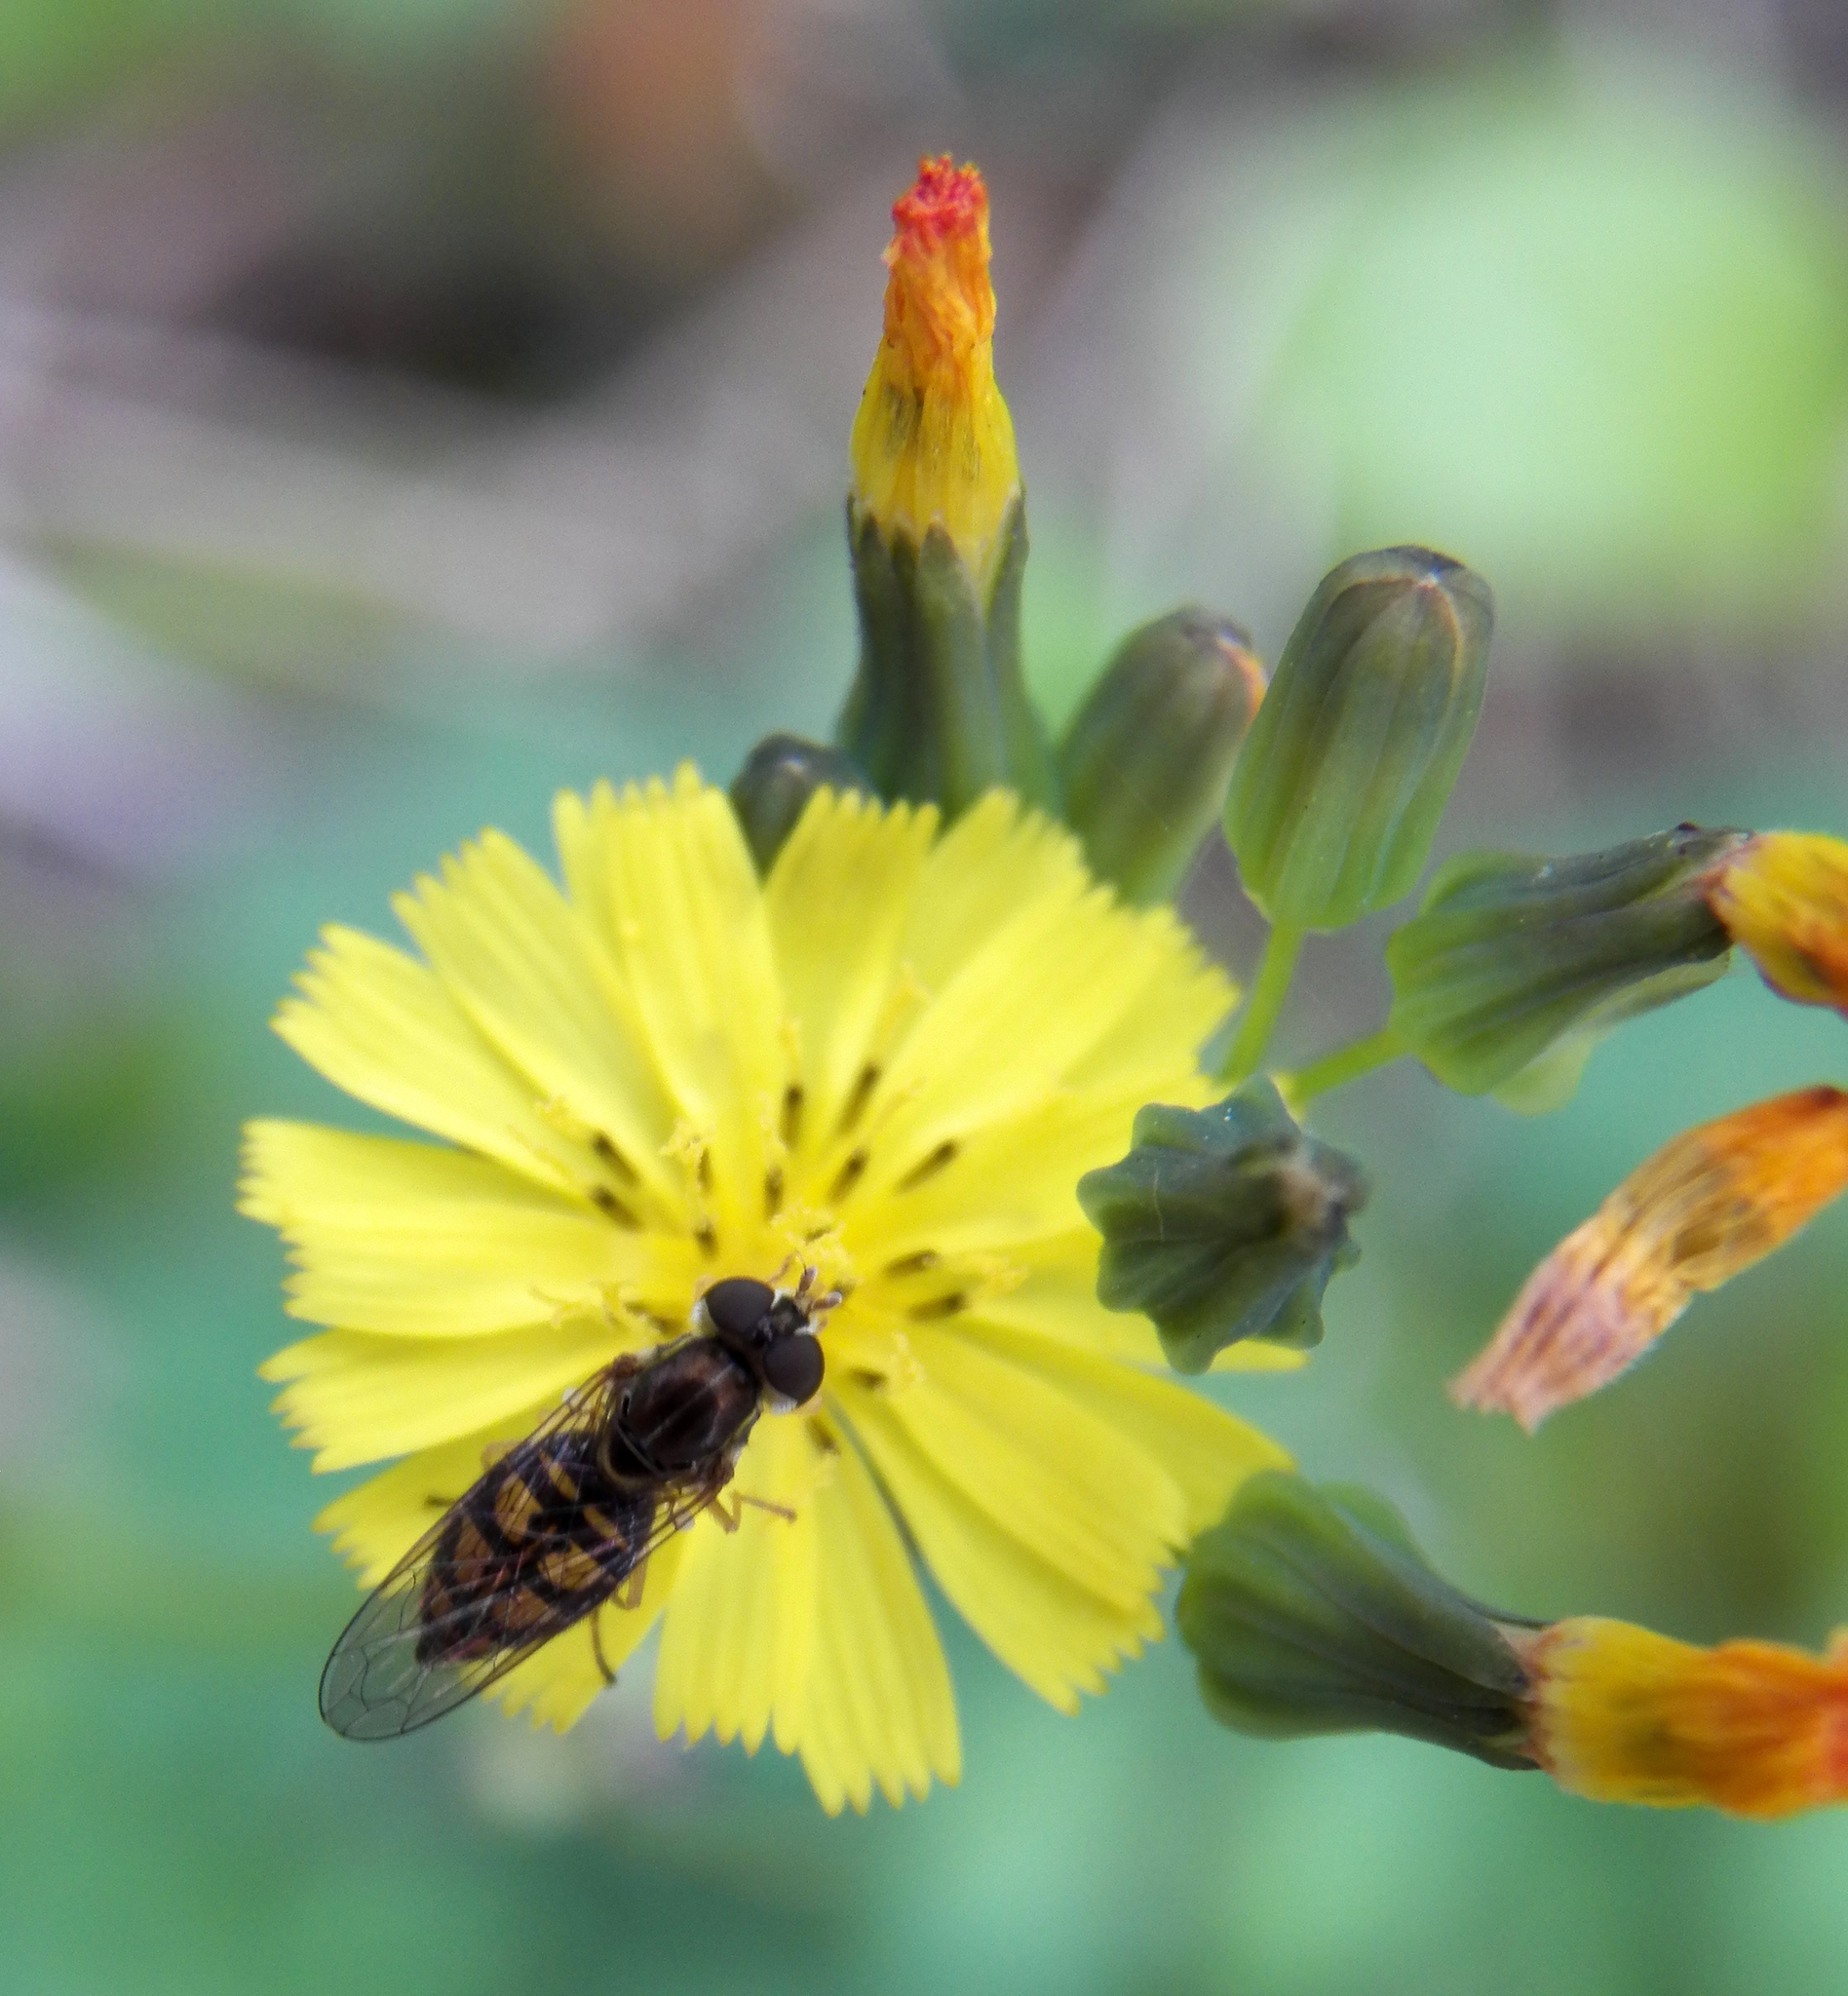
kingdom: Animalia
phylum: Arthropoda
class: Insecta
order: Diptera
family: Syrphidae
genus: Toxomerus
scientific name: Toxomerus marginatus
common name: Syrphid fly
